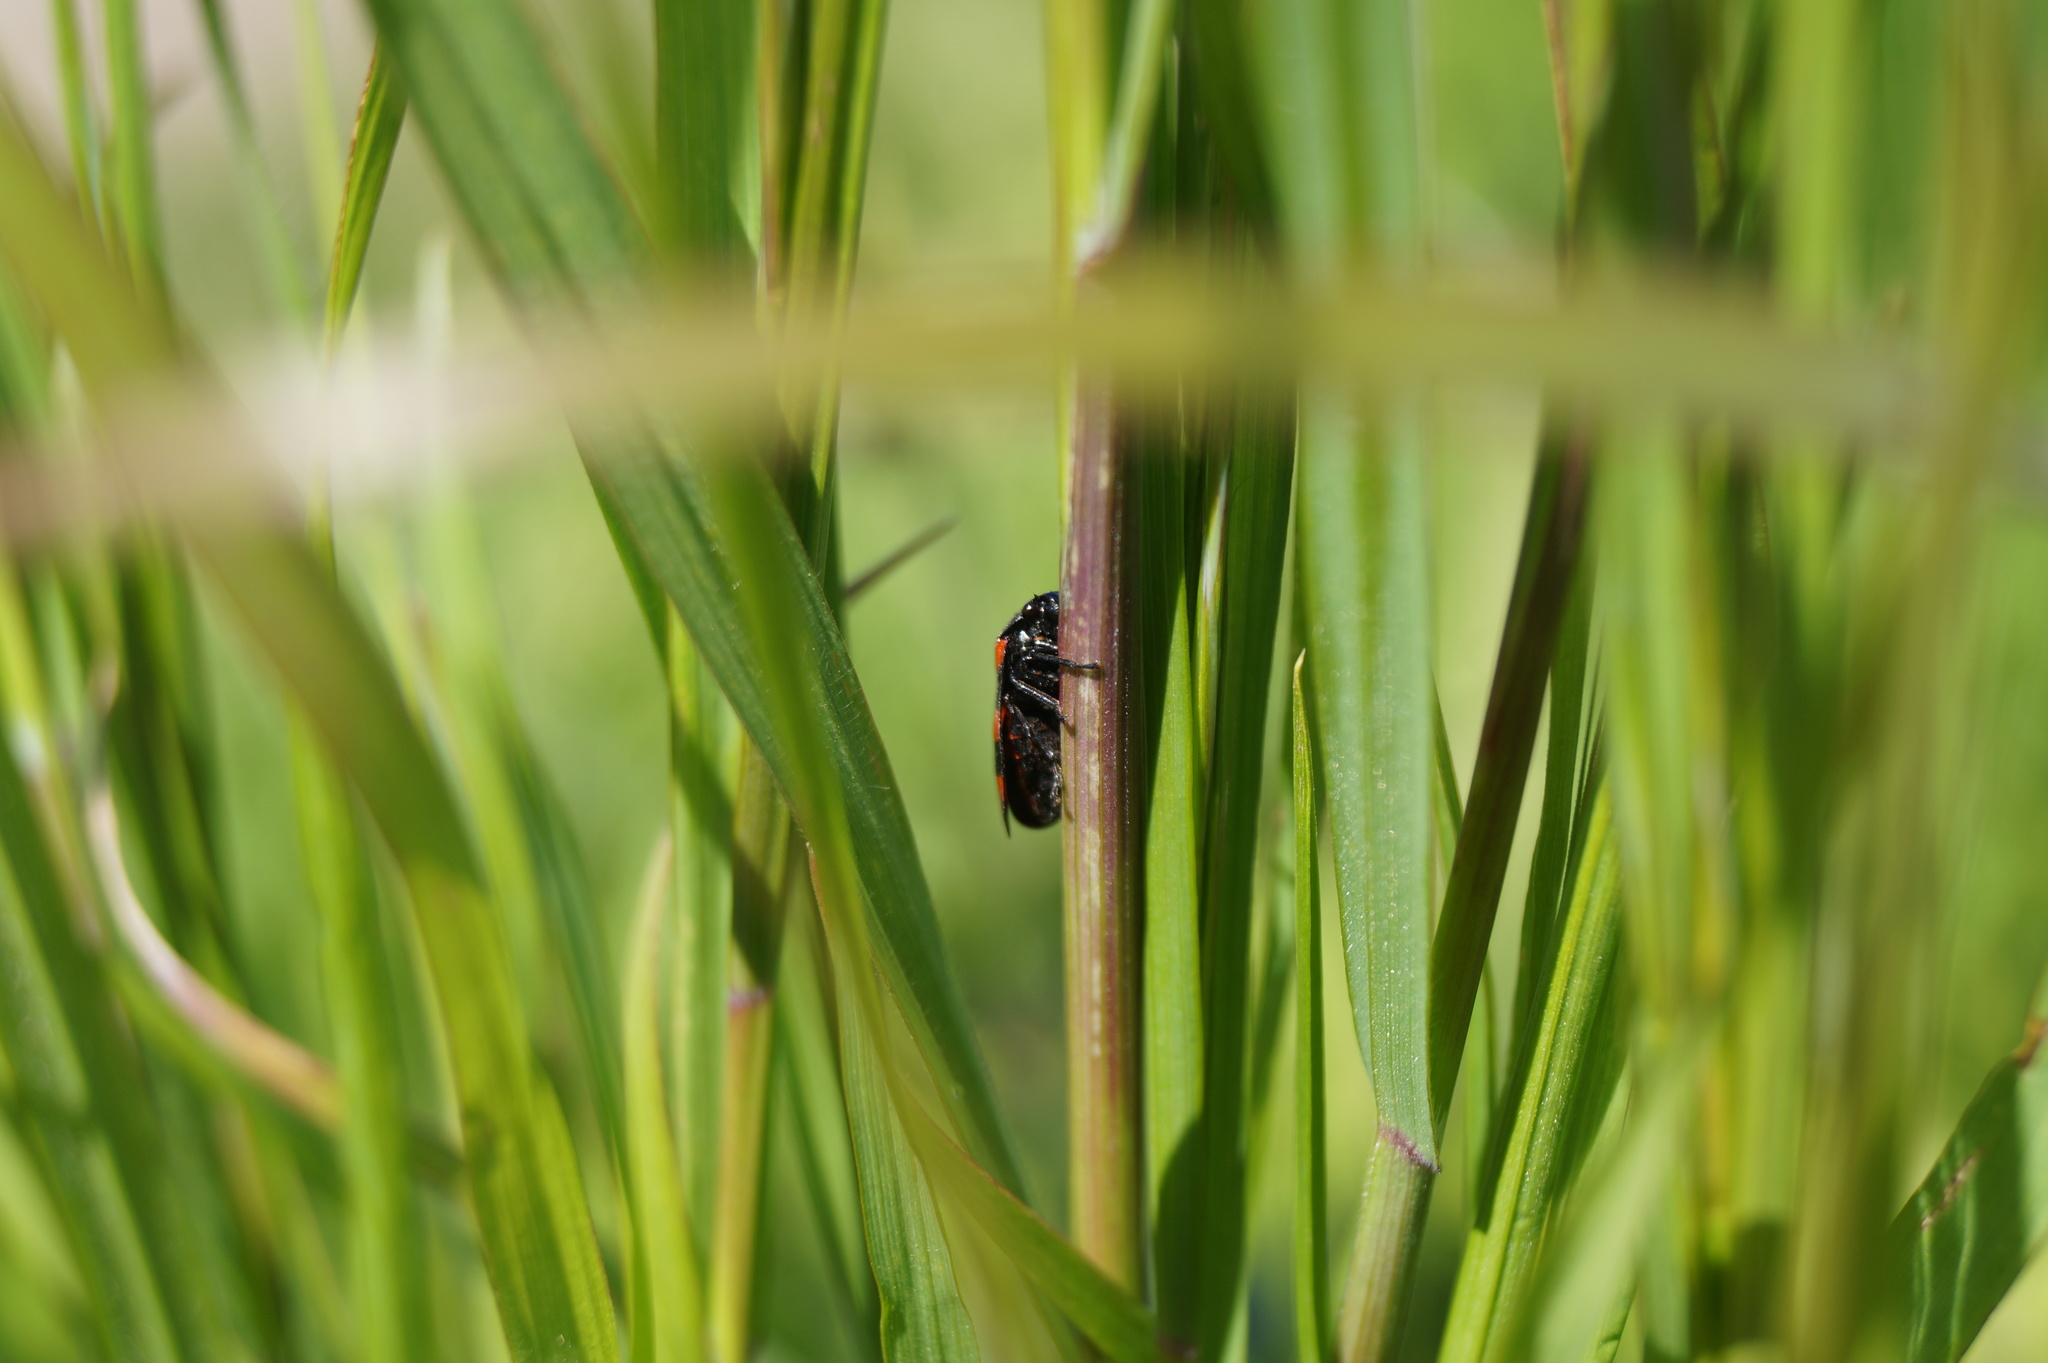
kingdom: Animalia
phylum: Arthropoda
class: Insecta
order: Hemiptera
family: Cercopidae
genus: Cercopis
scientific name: Cercopis vulnerata
